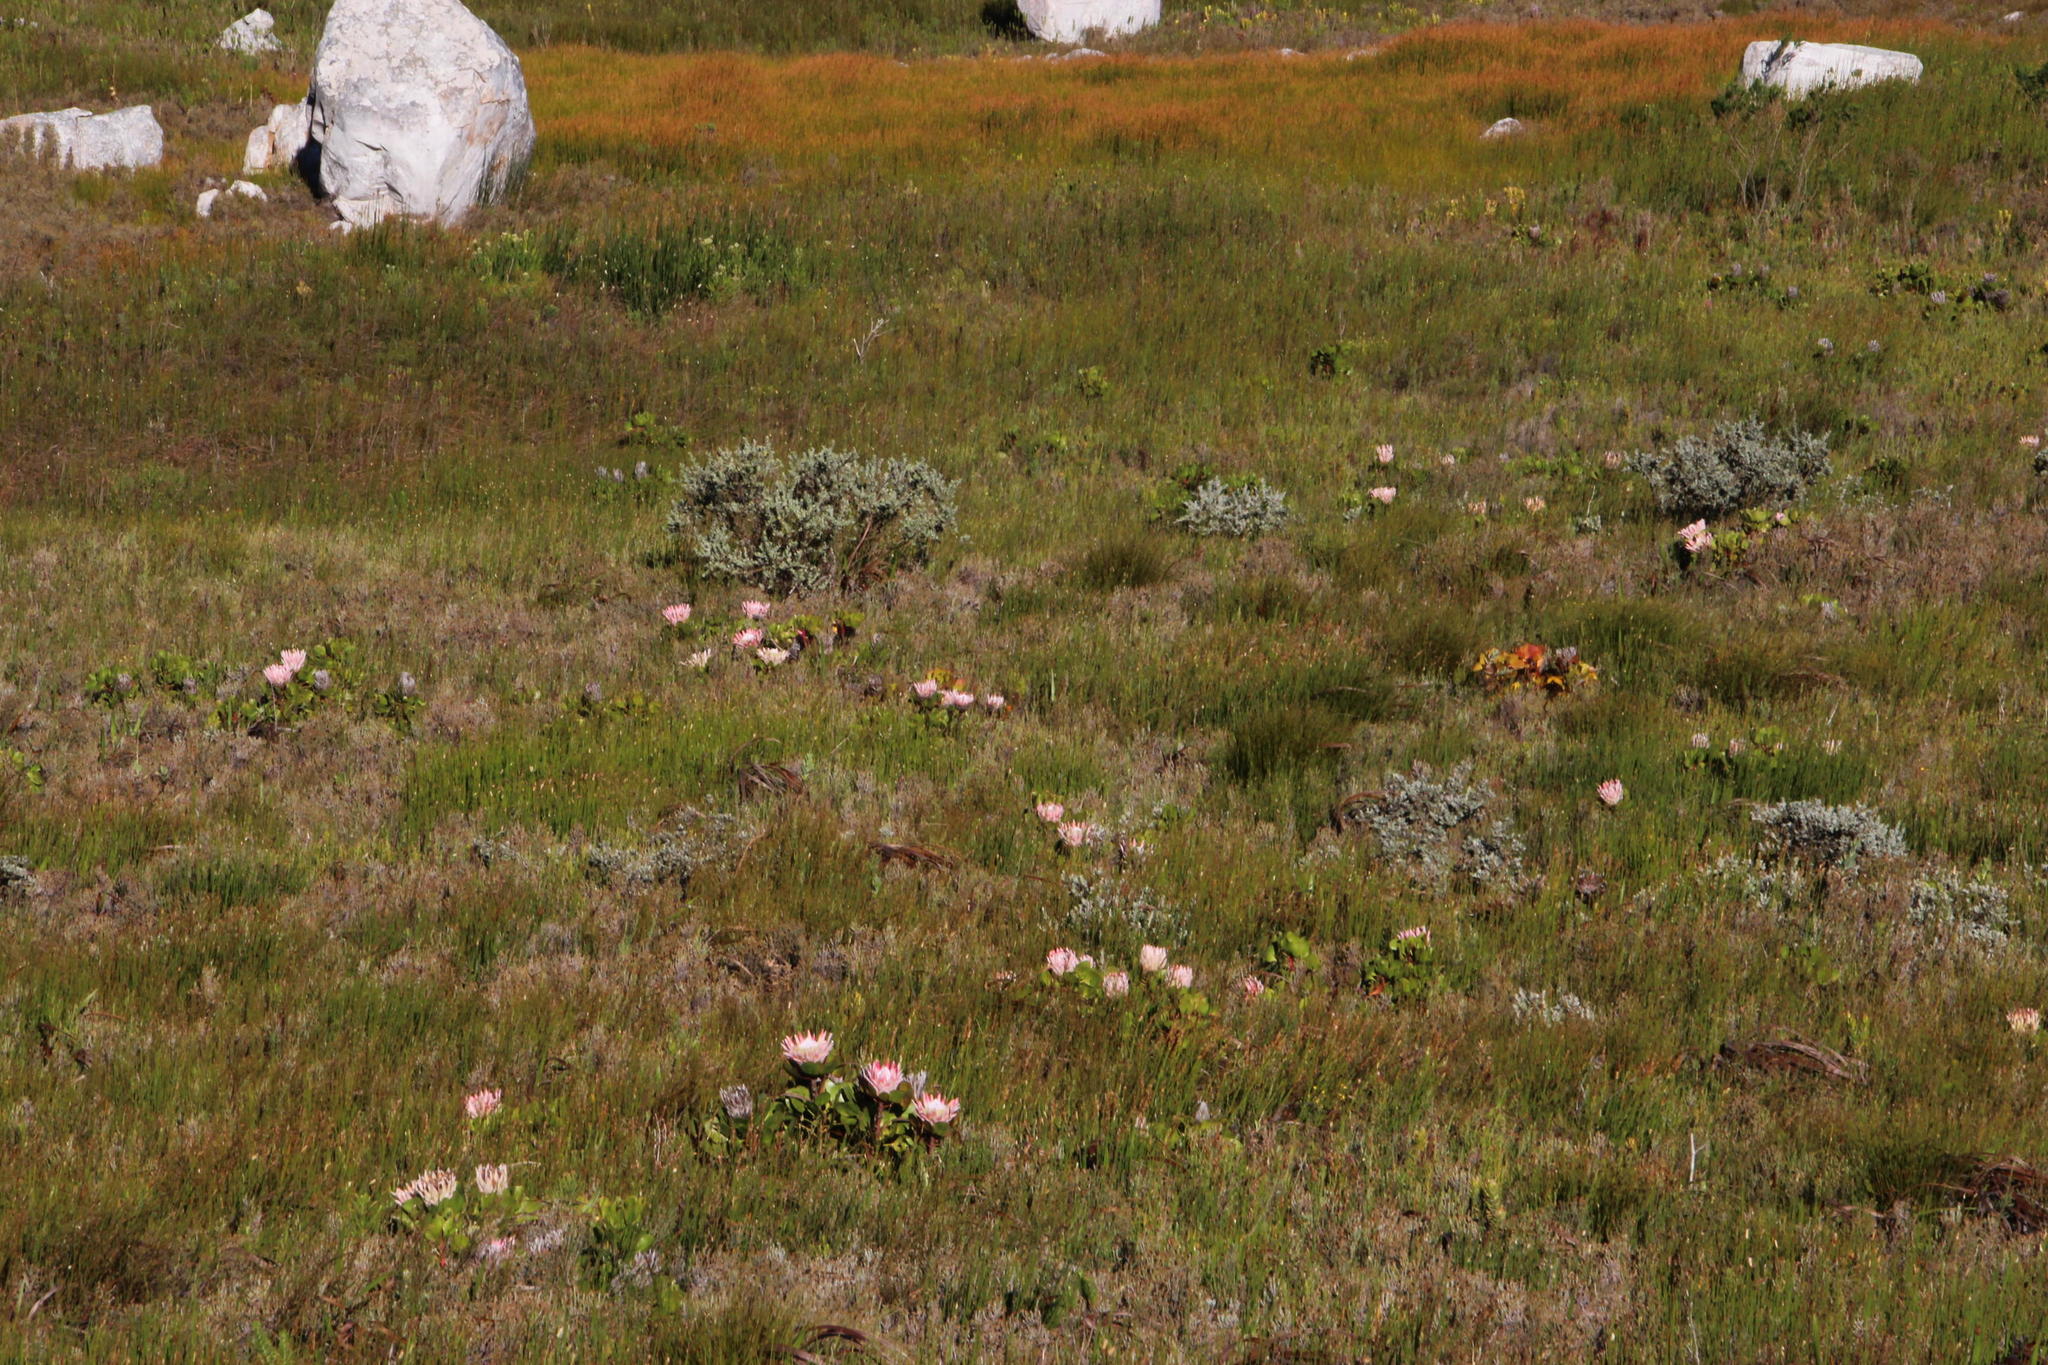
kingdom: Plantae
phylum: Tracheophyta
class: Magnoliopsida
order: Proteales
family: Proteaceae
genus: Protea
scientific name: Protea cynaroides
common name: King protea
